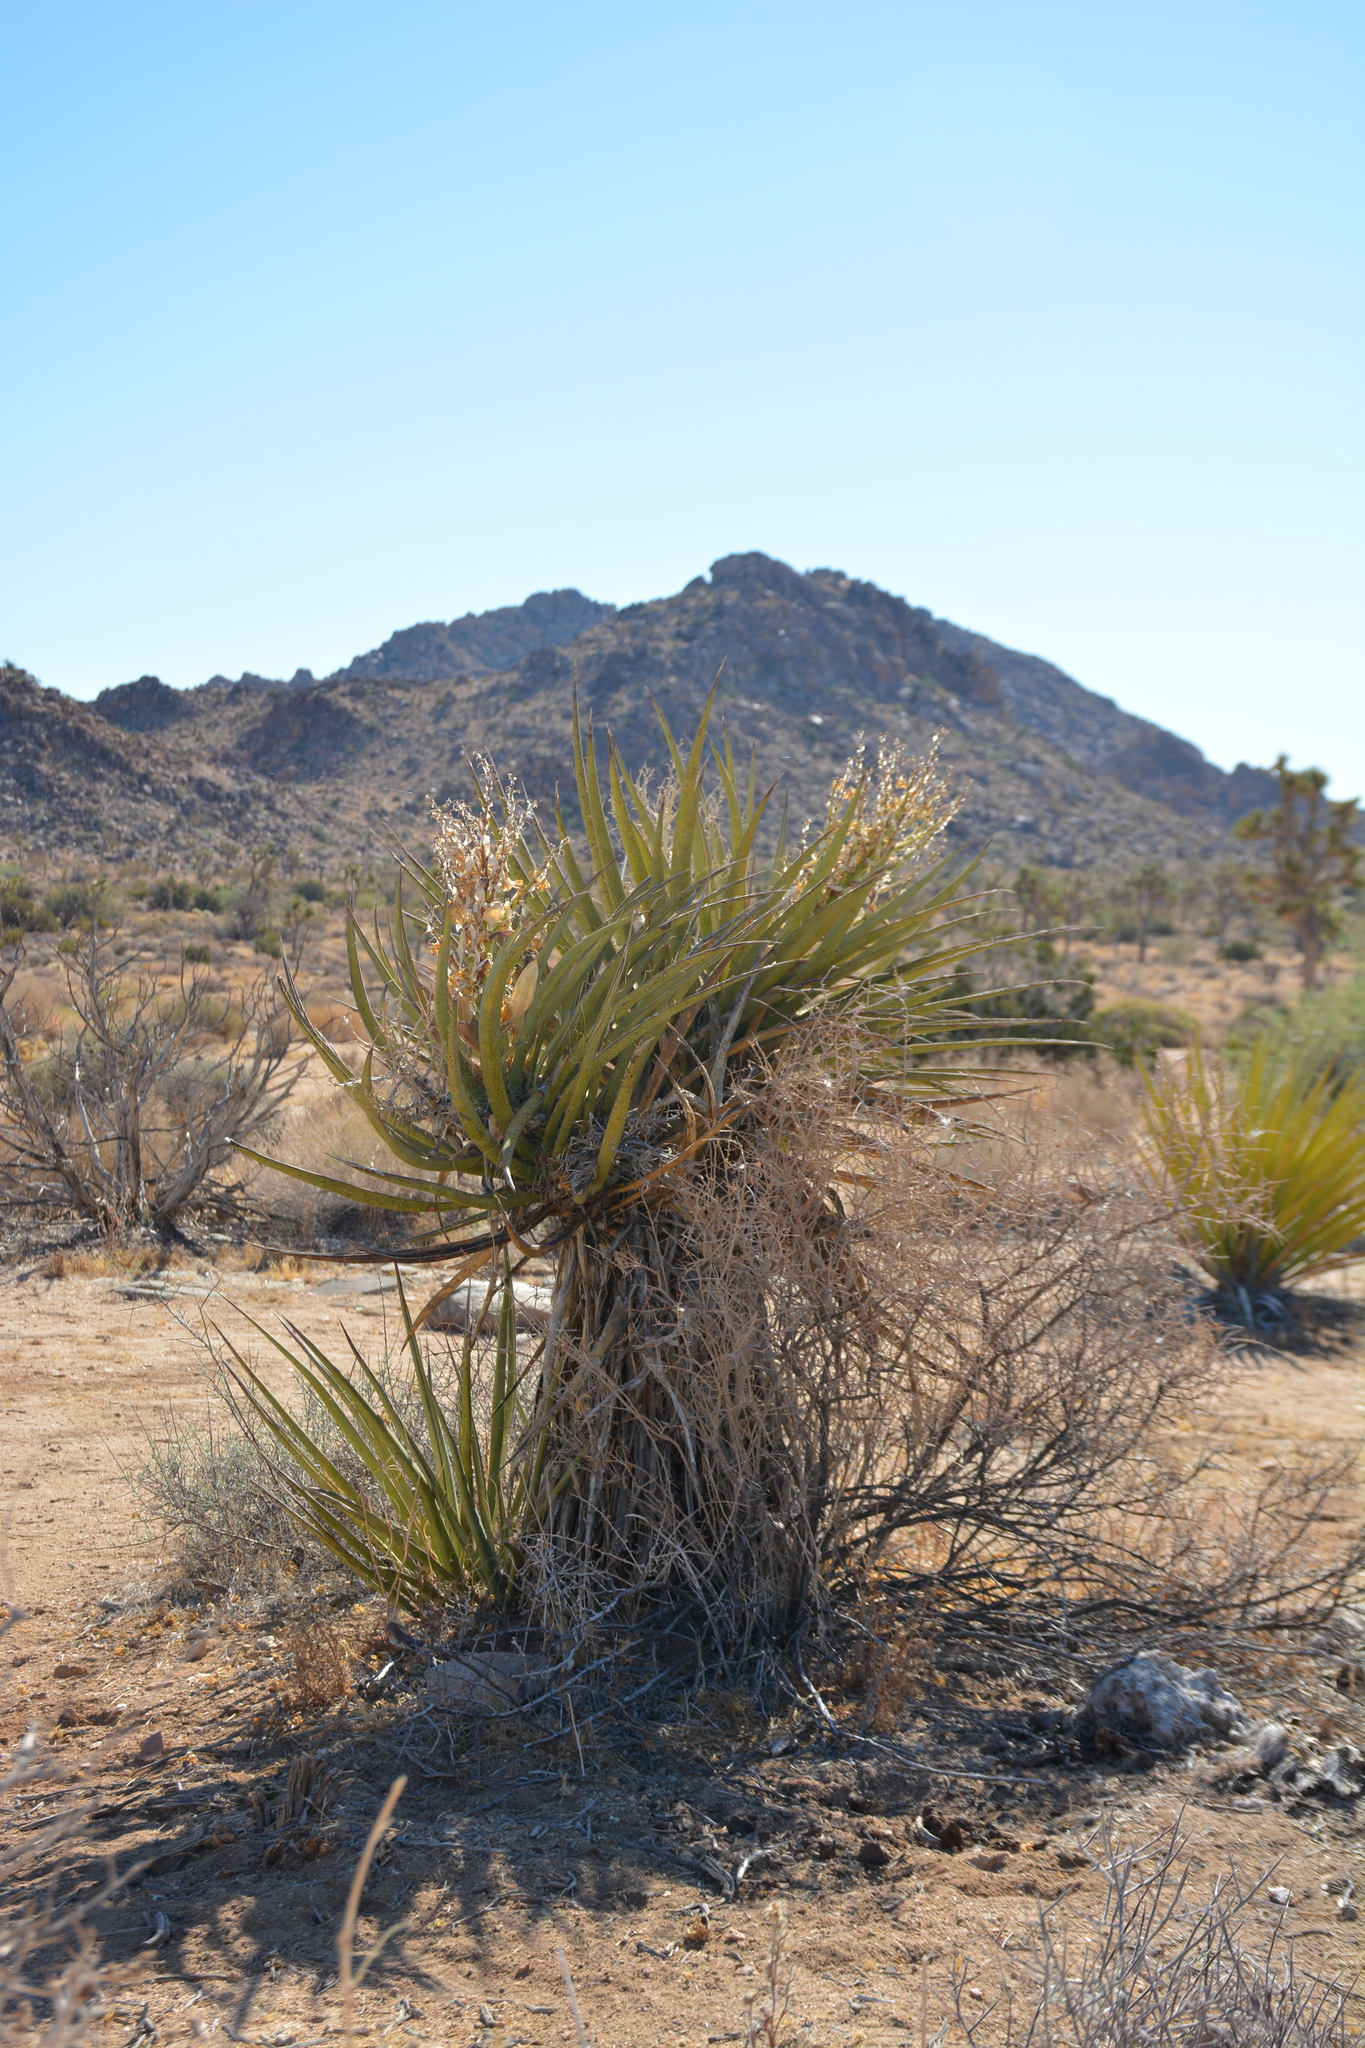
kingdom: Plantae
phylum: Tracheophyta
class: Liliopsida
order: Asparagales
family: Asparagaceae
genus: Yucca
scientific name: Yucca schidigera
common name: Mojave yucca
